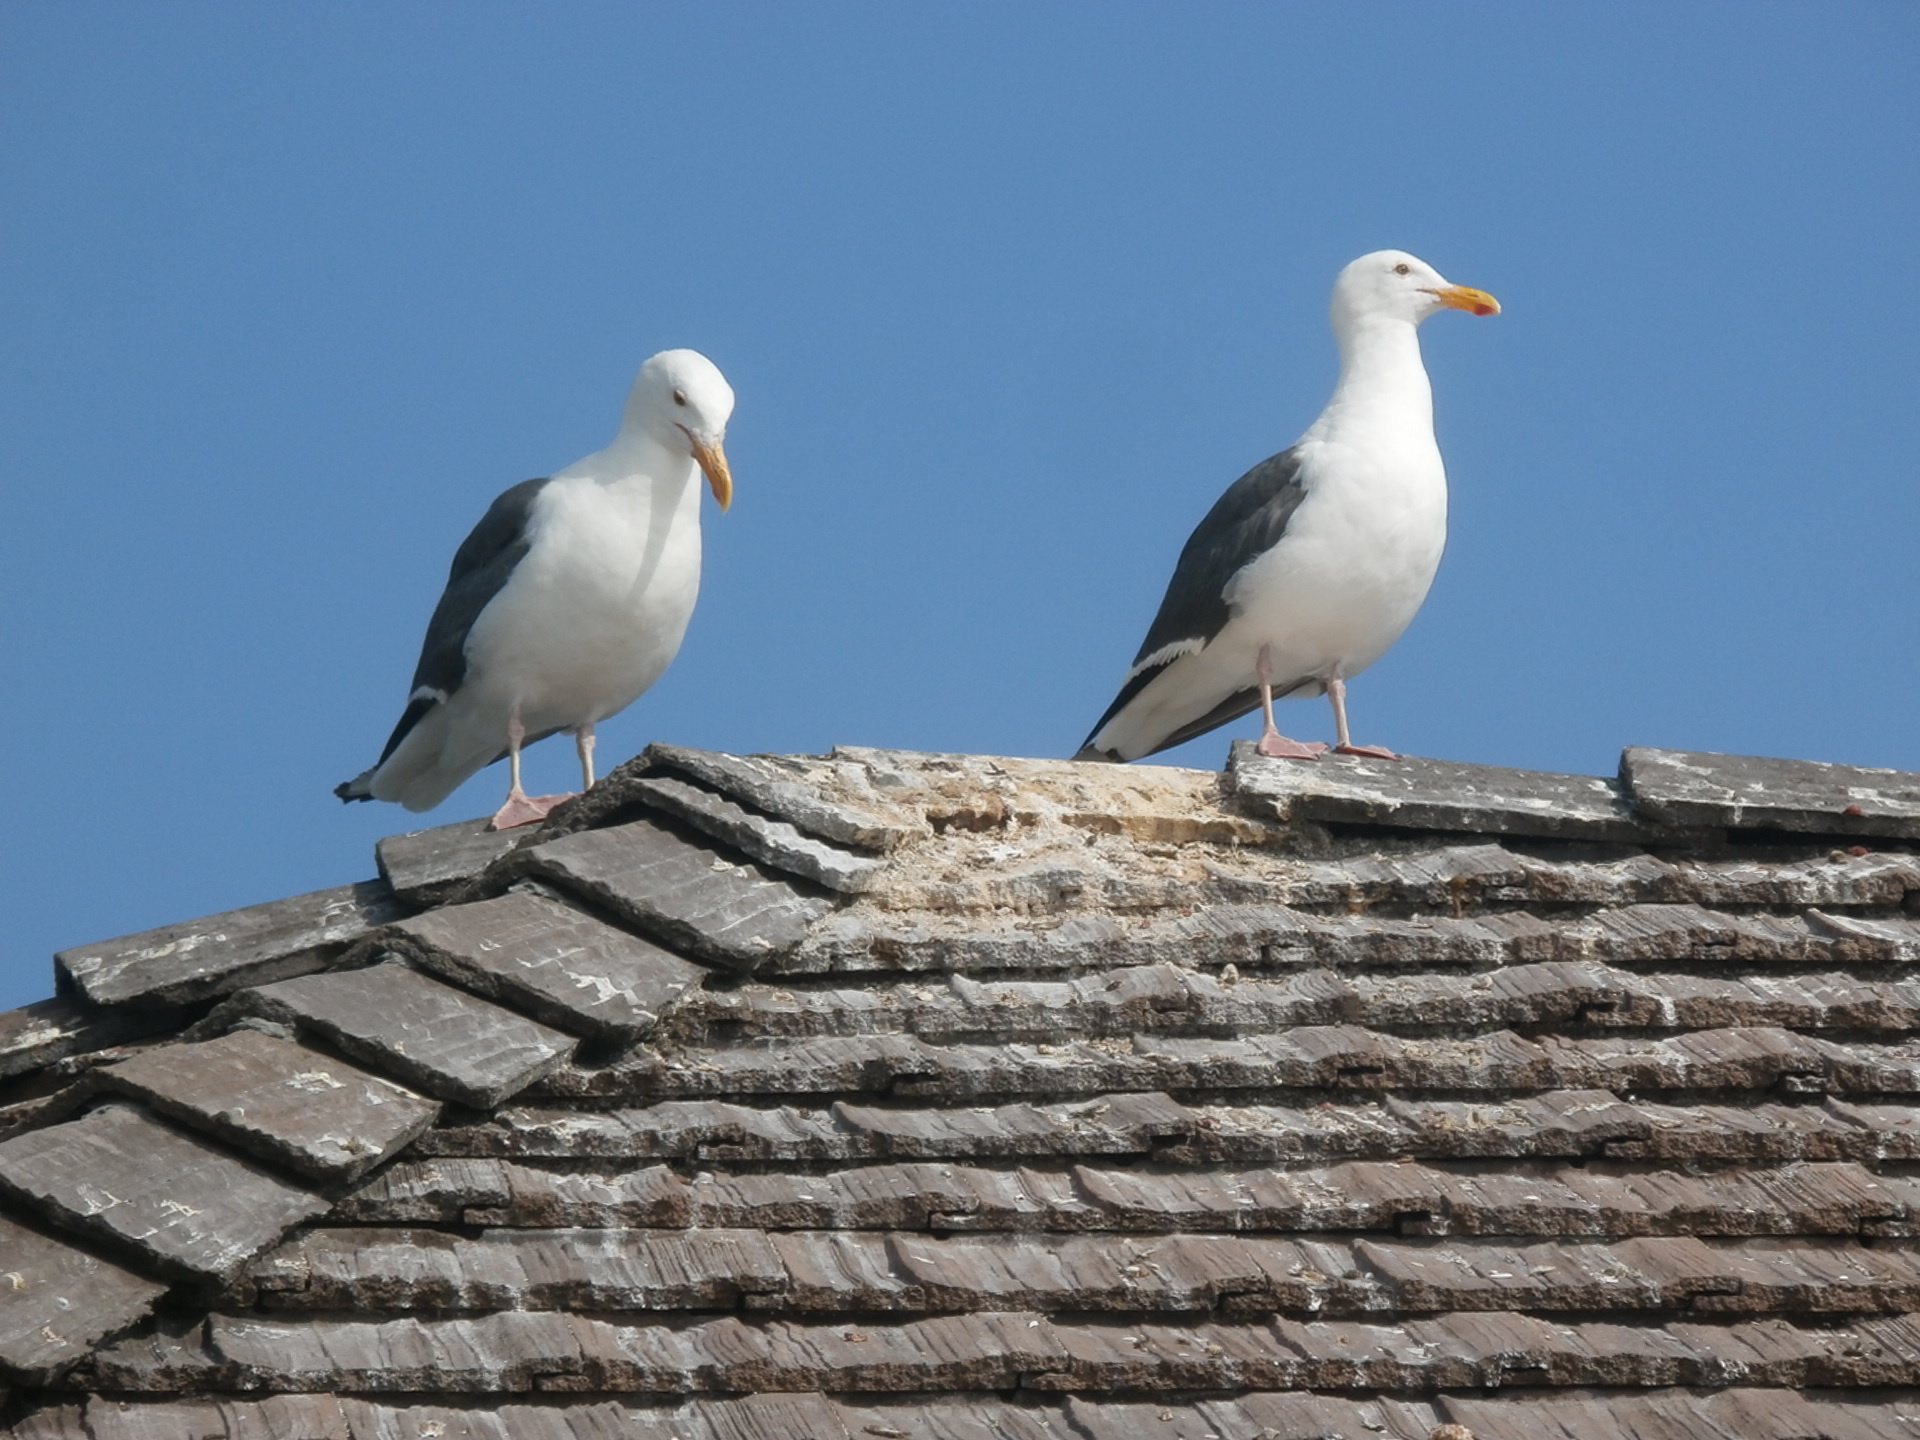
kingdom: Animalia
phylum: Chordata
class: Aves
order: Charadriiformes
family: Laridae
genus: Larus
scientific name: Larus occidentalis
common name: Western gull
